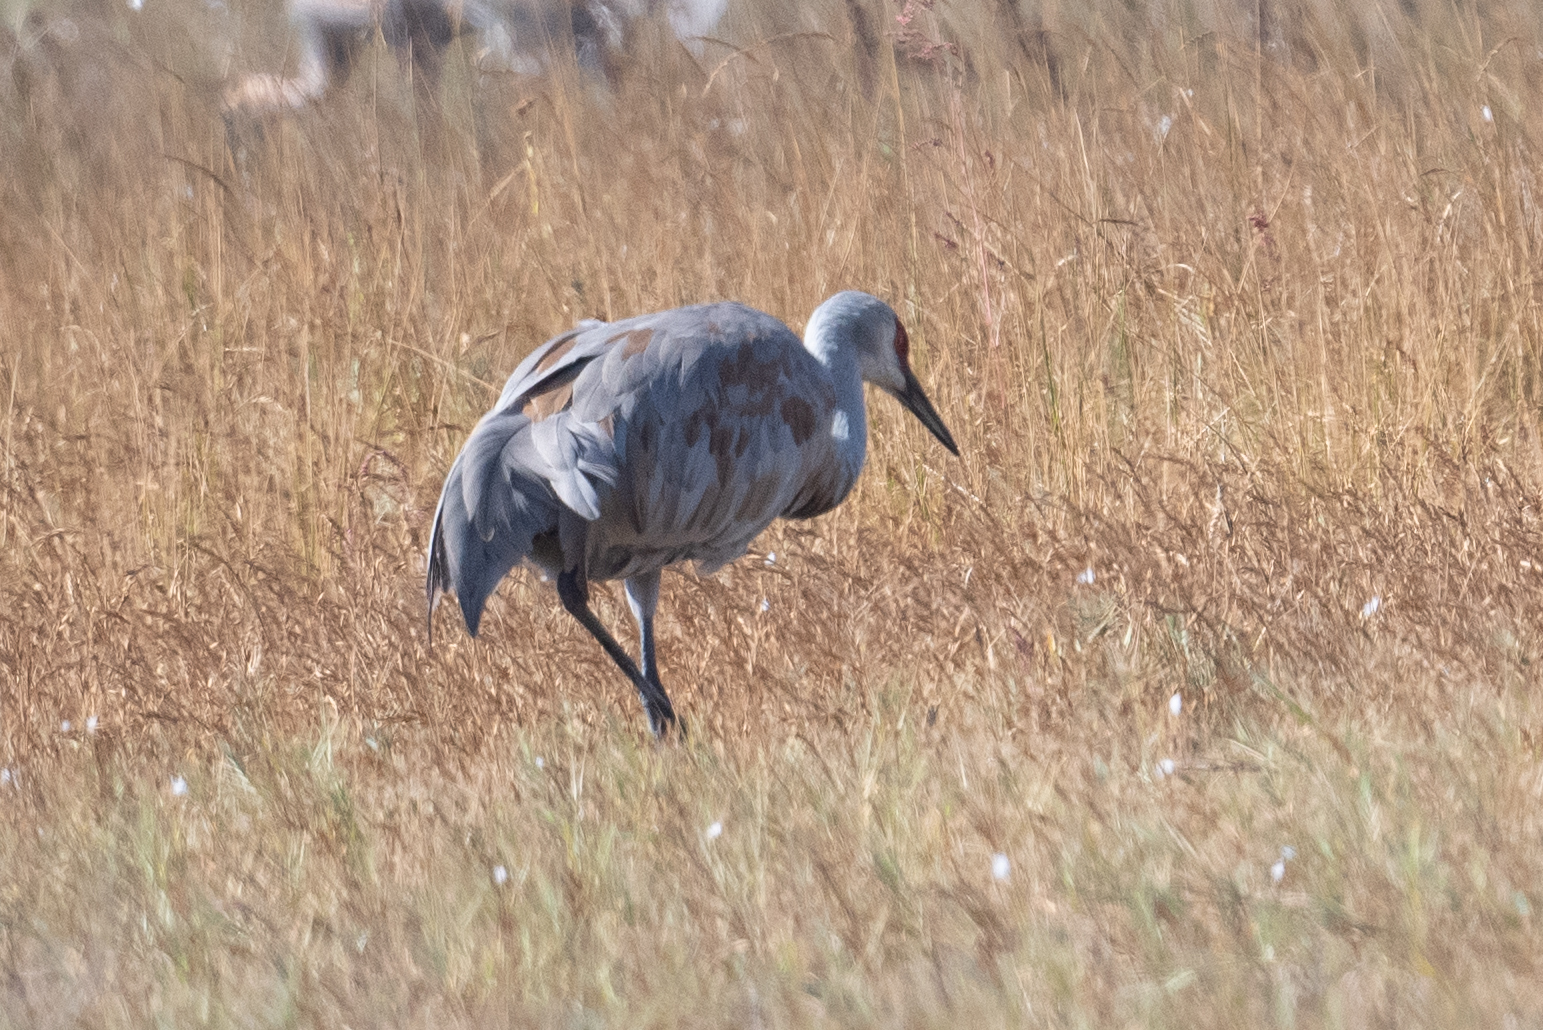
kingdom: Animalia
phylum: Chordata
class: Aves
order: Gruiformes
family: Gruidae
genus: Grus
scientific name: Grus canadensis
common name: Sandhill crane
